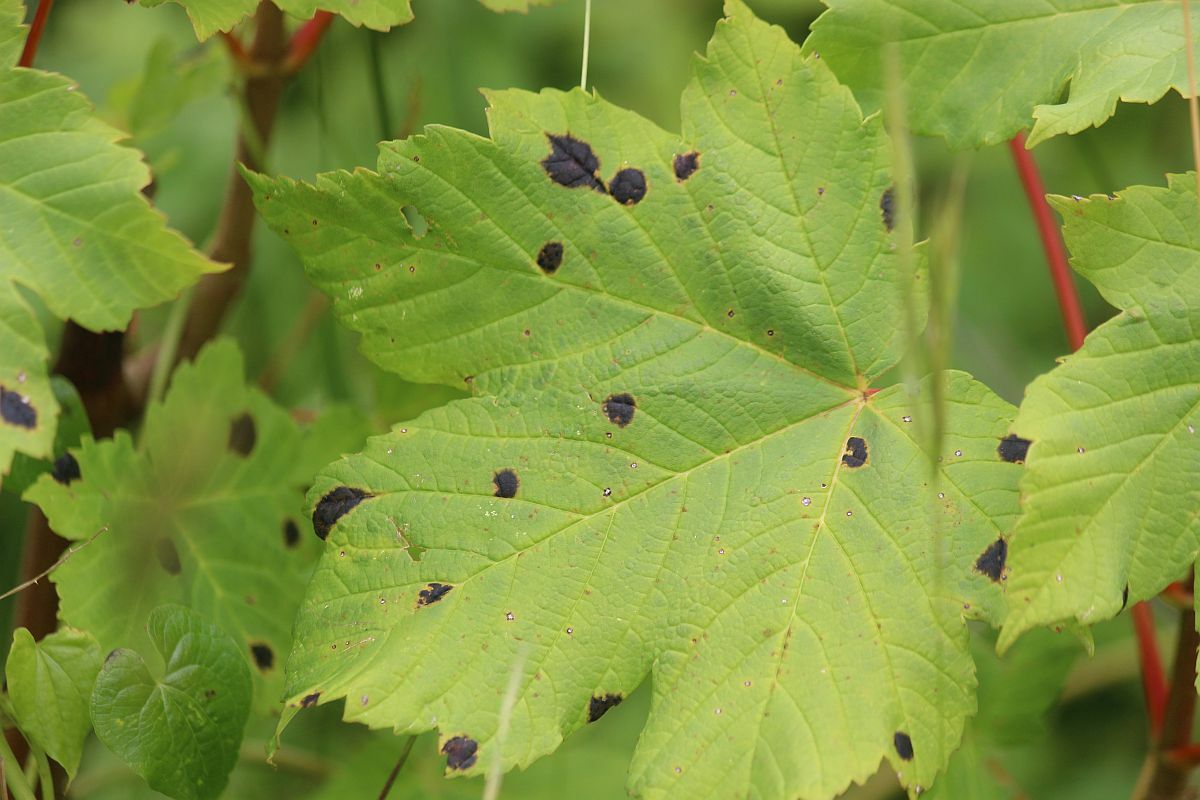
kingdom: Fungi
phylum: Ascomycota
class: Leotiomycetes
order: Rhytismatales
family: Rhytismataceae
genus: Rhytisma
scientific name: Rhytisma acerinum
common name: European tar spot
